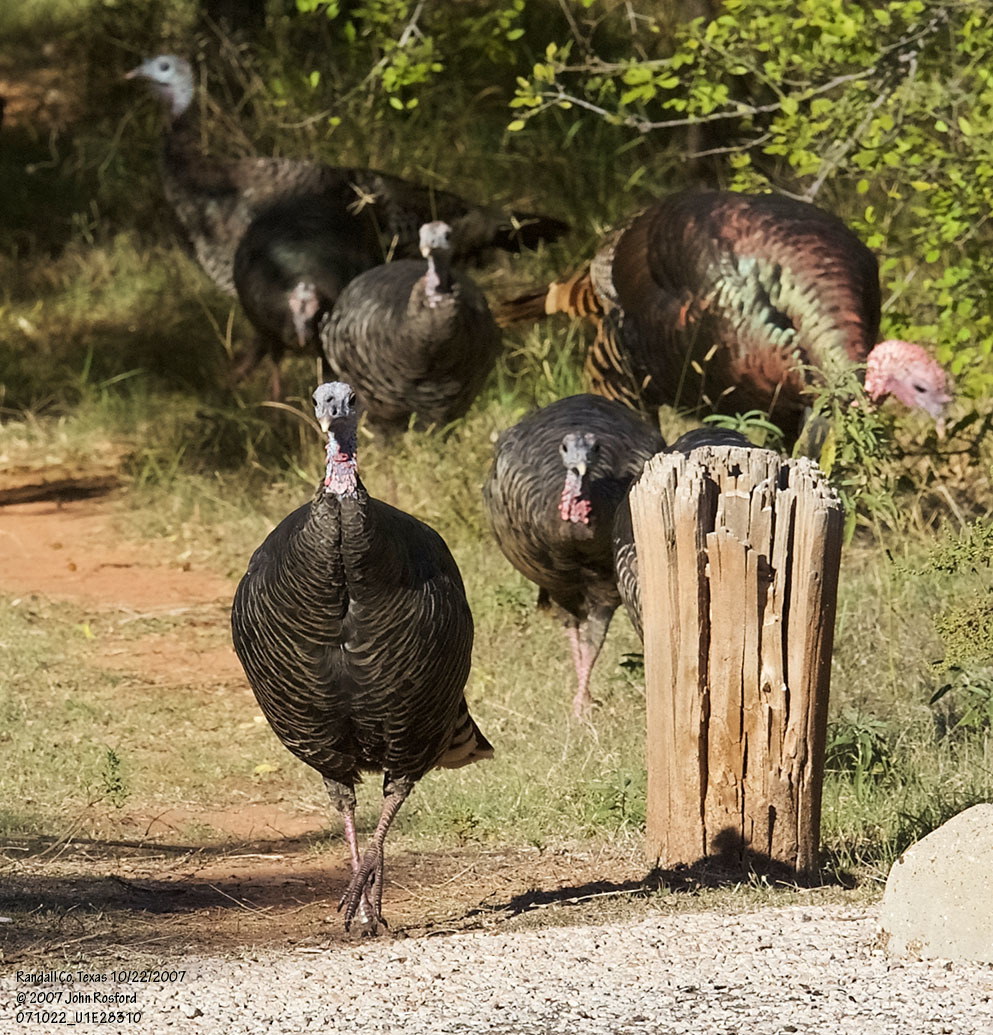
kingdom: Animalia
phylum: Chordata
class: Aves
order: Galliformes
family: Phasianidae
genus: Meleagris
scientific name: Meleagris gallopavo
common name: Wild turkey
